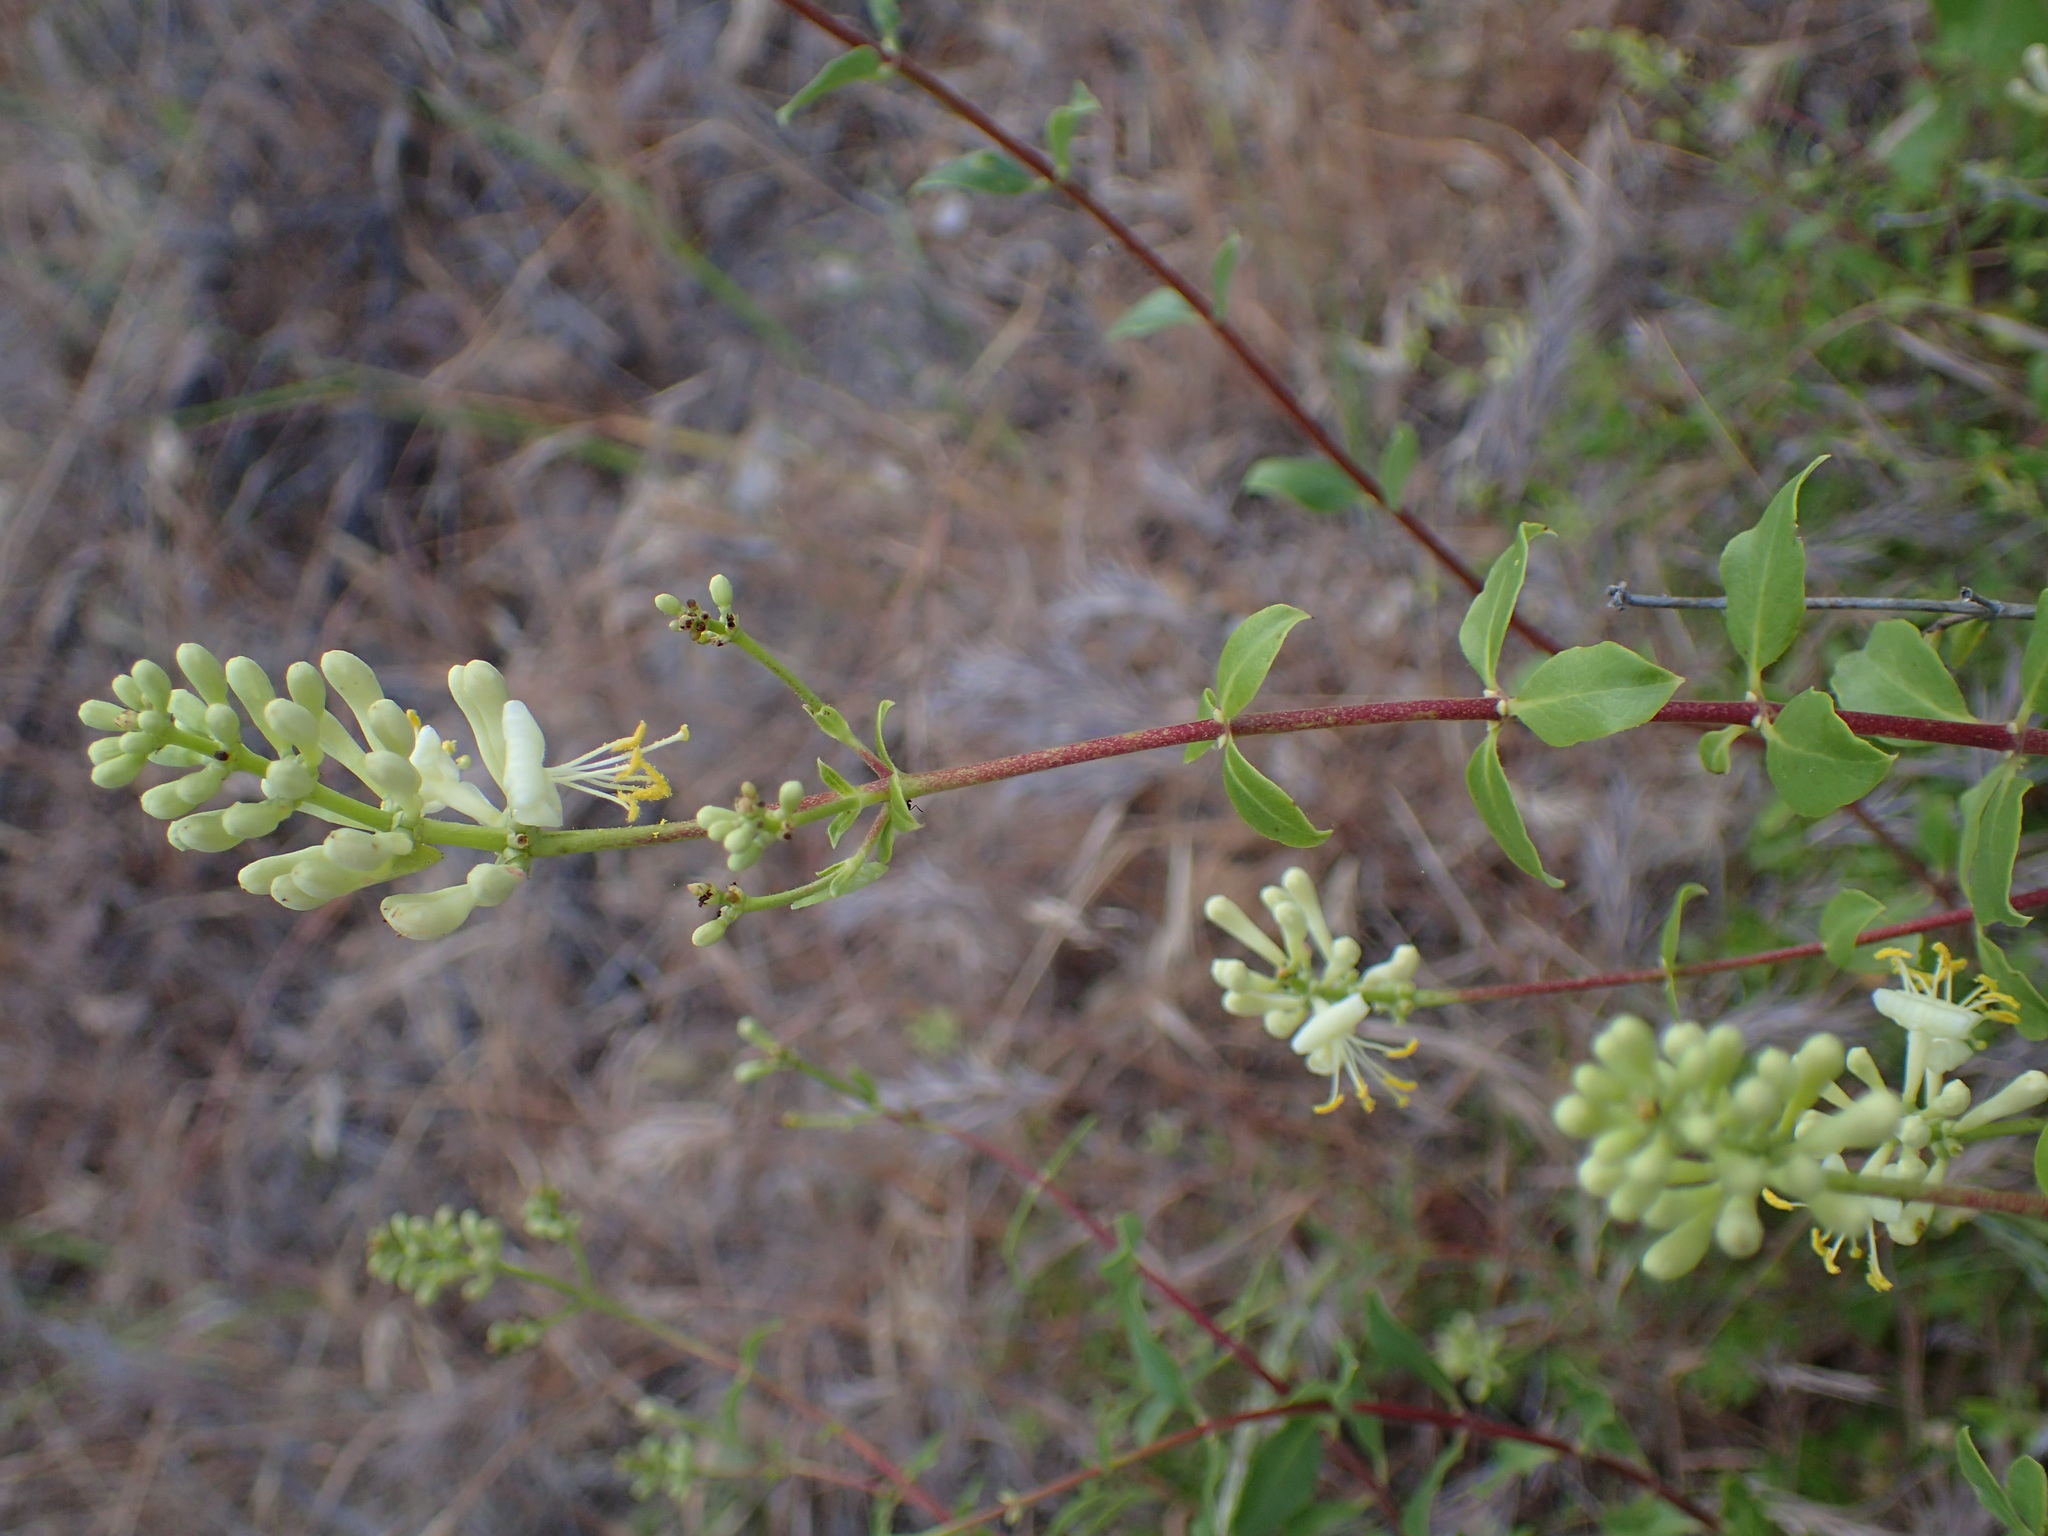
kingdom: Plantae
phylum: Tracheophyta
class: Magnoliopsida
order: Dipsacales
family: Caprifoliaceae
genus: Lonicera
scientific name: Lonicera subspicata
